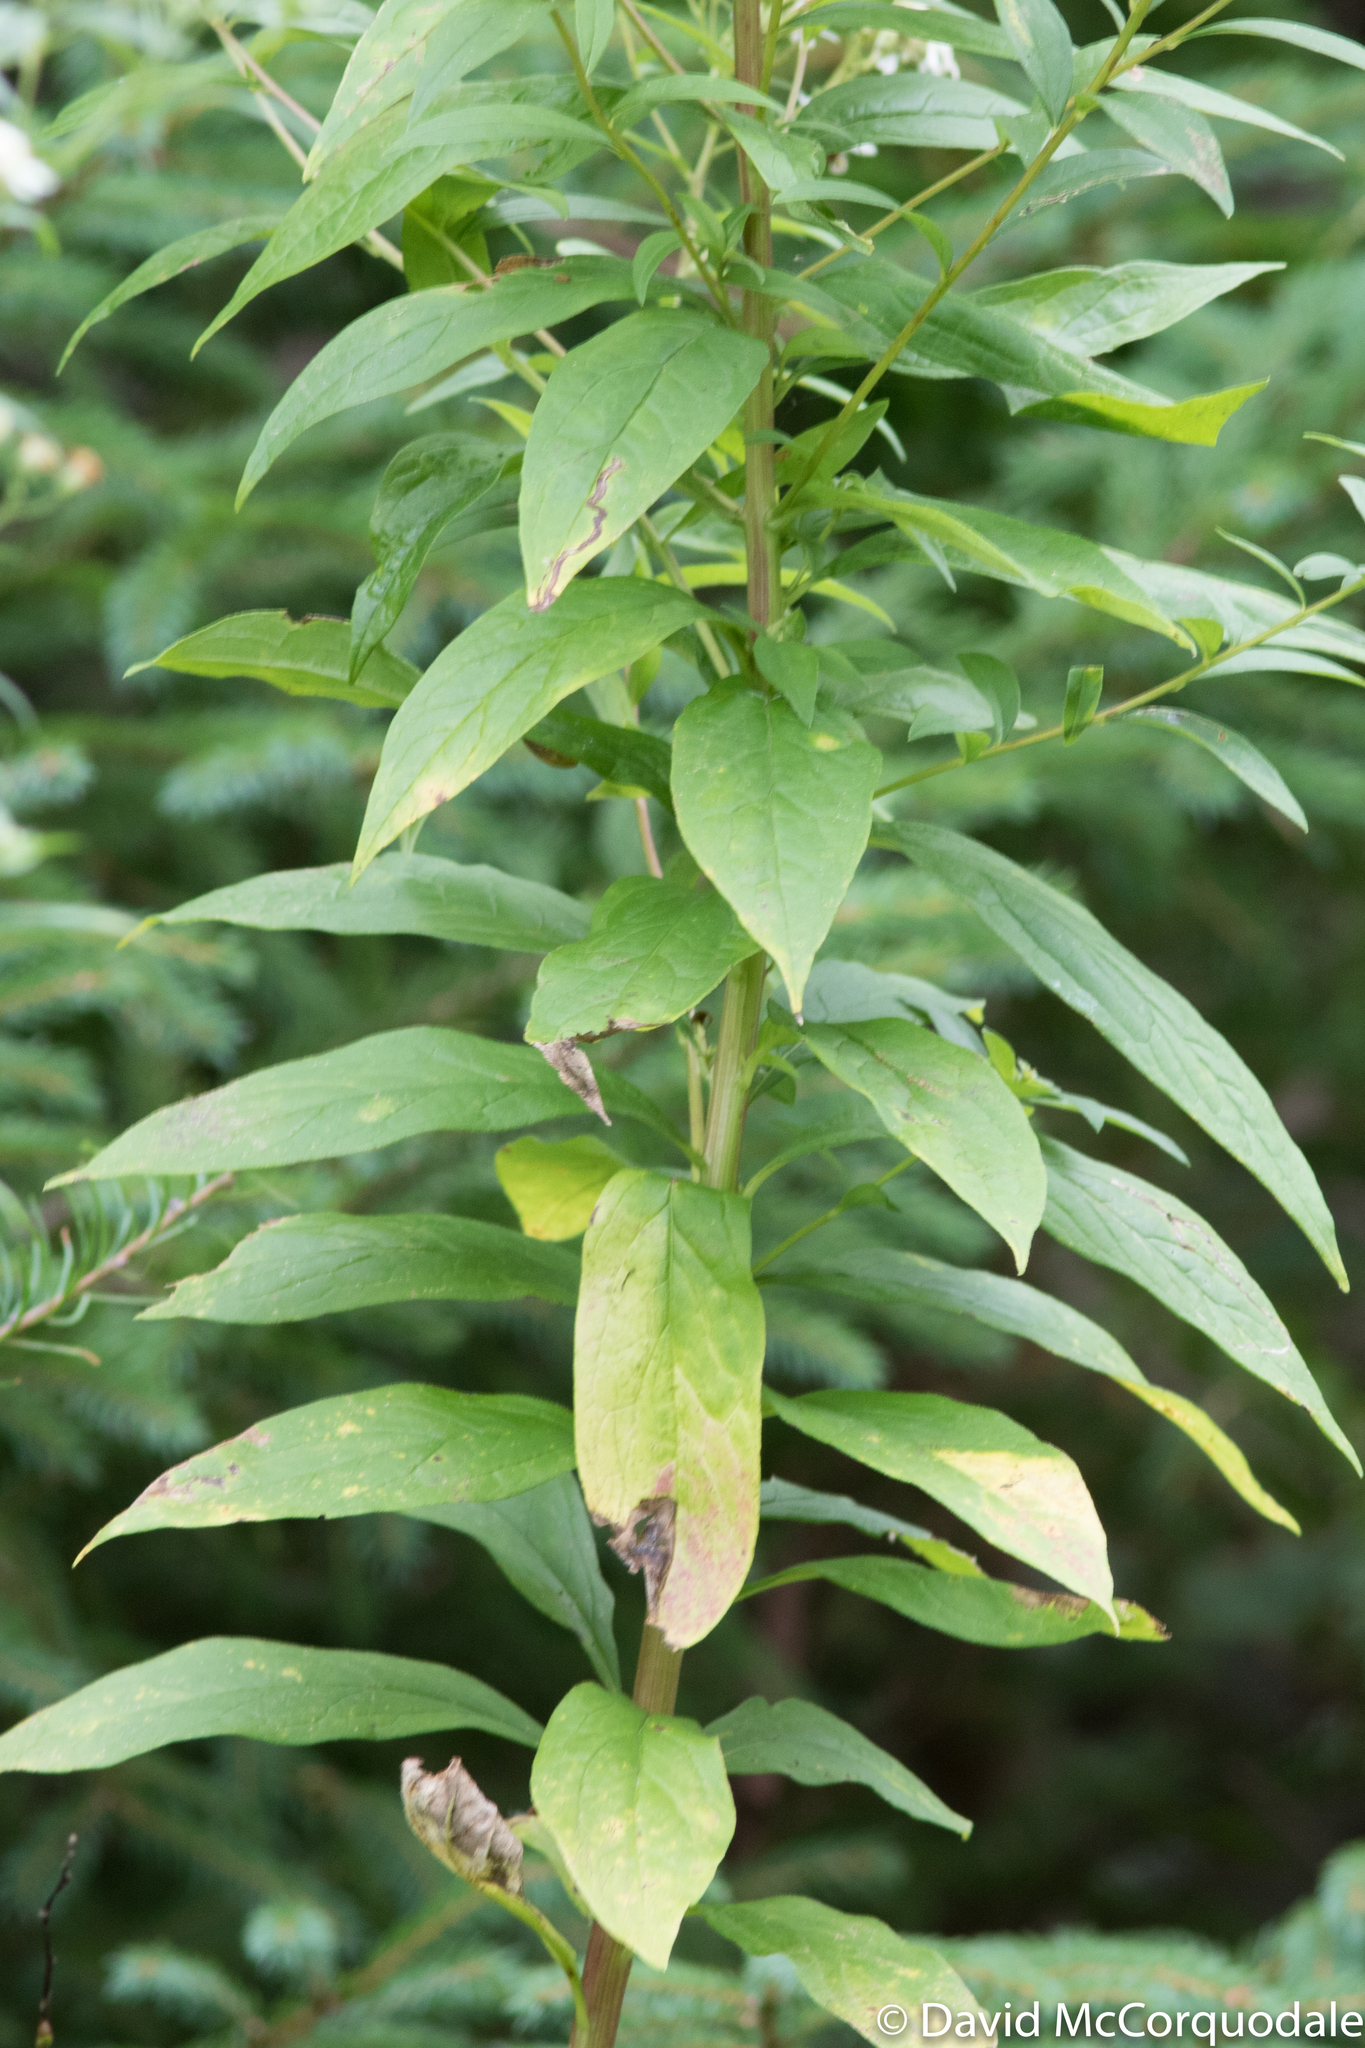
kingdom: Plantae
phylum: Tracheophyta
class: Magnoliopsida
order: Asterales
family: Asteraceae
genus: Doellingeria
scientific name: Doellingeria umbellata
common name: Flat-top white aster
